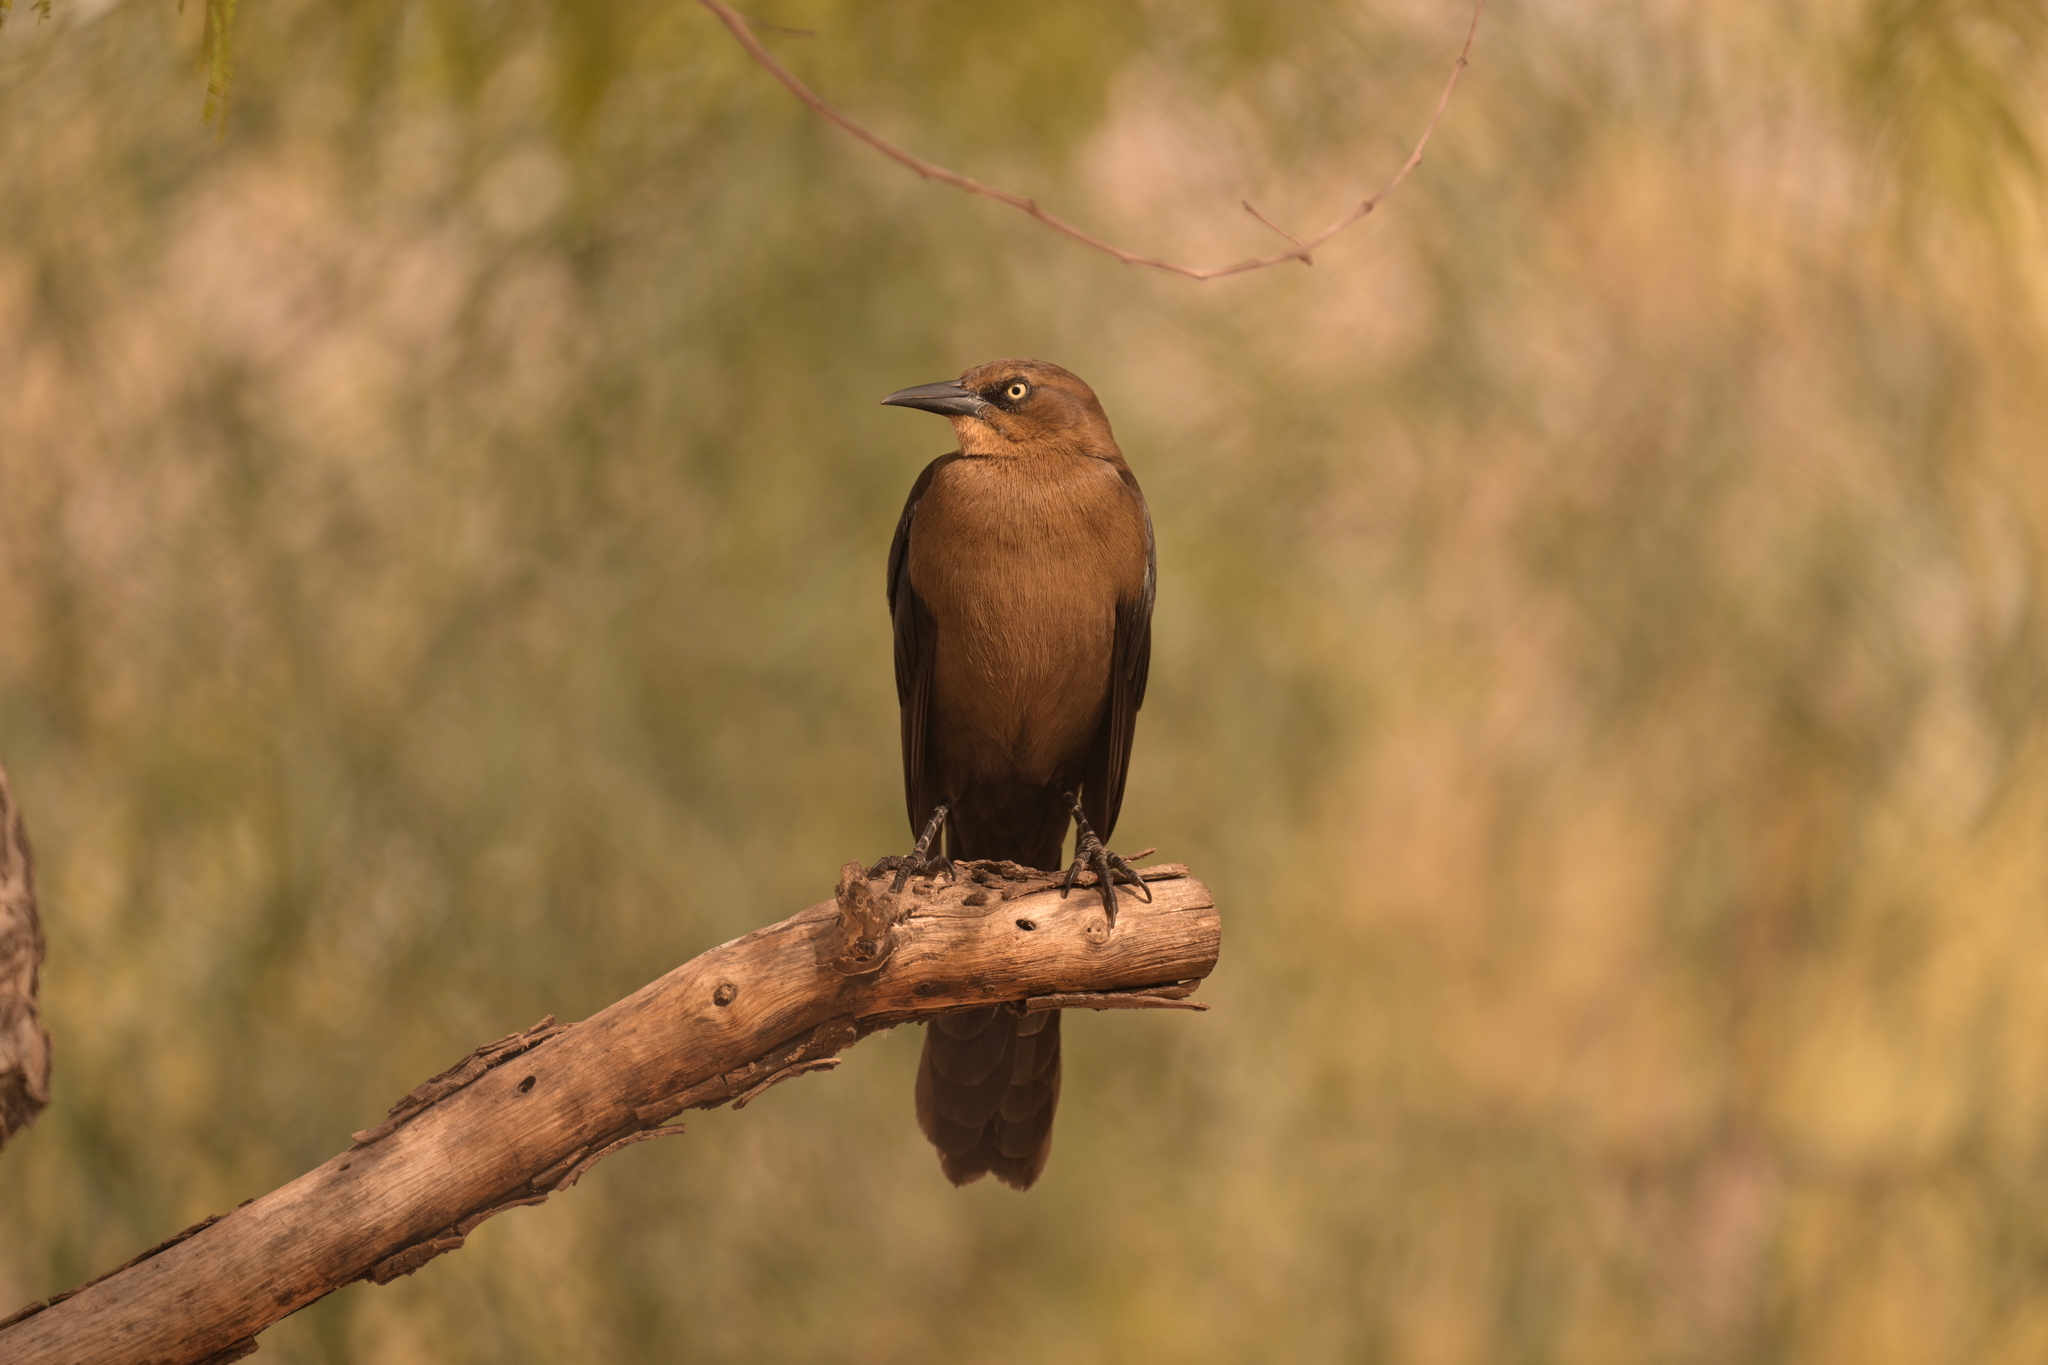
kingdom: Animalia
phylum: Chordata
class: Aves
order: Passeriformes
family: Icteridae
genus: Quiscalus
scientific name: Quiscalus mexicanus
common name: Great-tailed grackle
